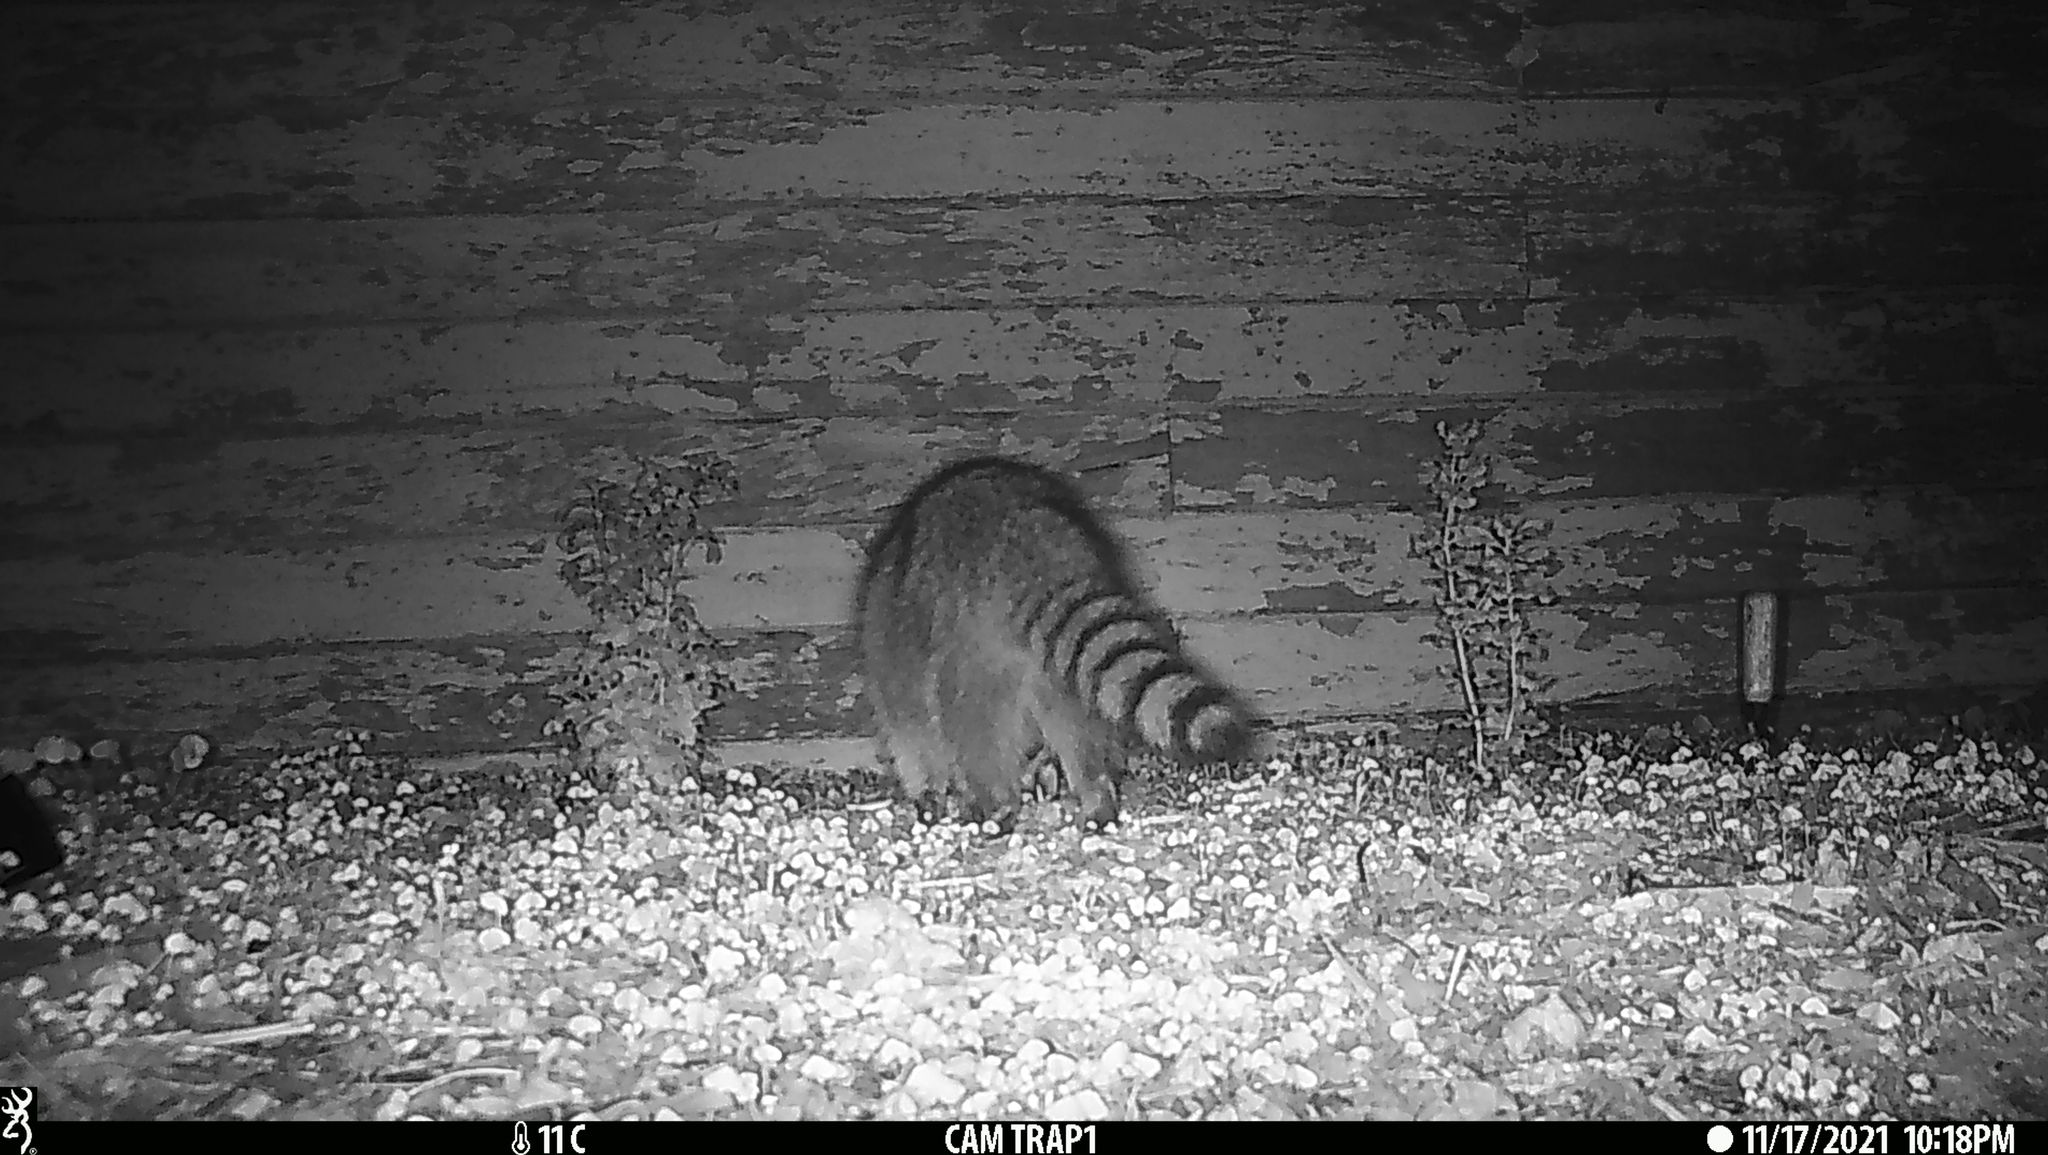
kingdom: Animalia
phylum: Chordata
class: Mammalia
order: Carnivora
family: Procyonidae
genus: Procyon
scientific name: Procyon lotor
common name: Raccoon
